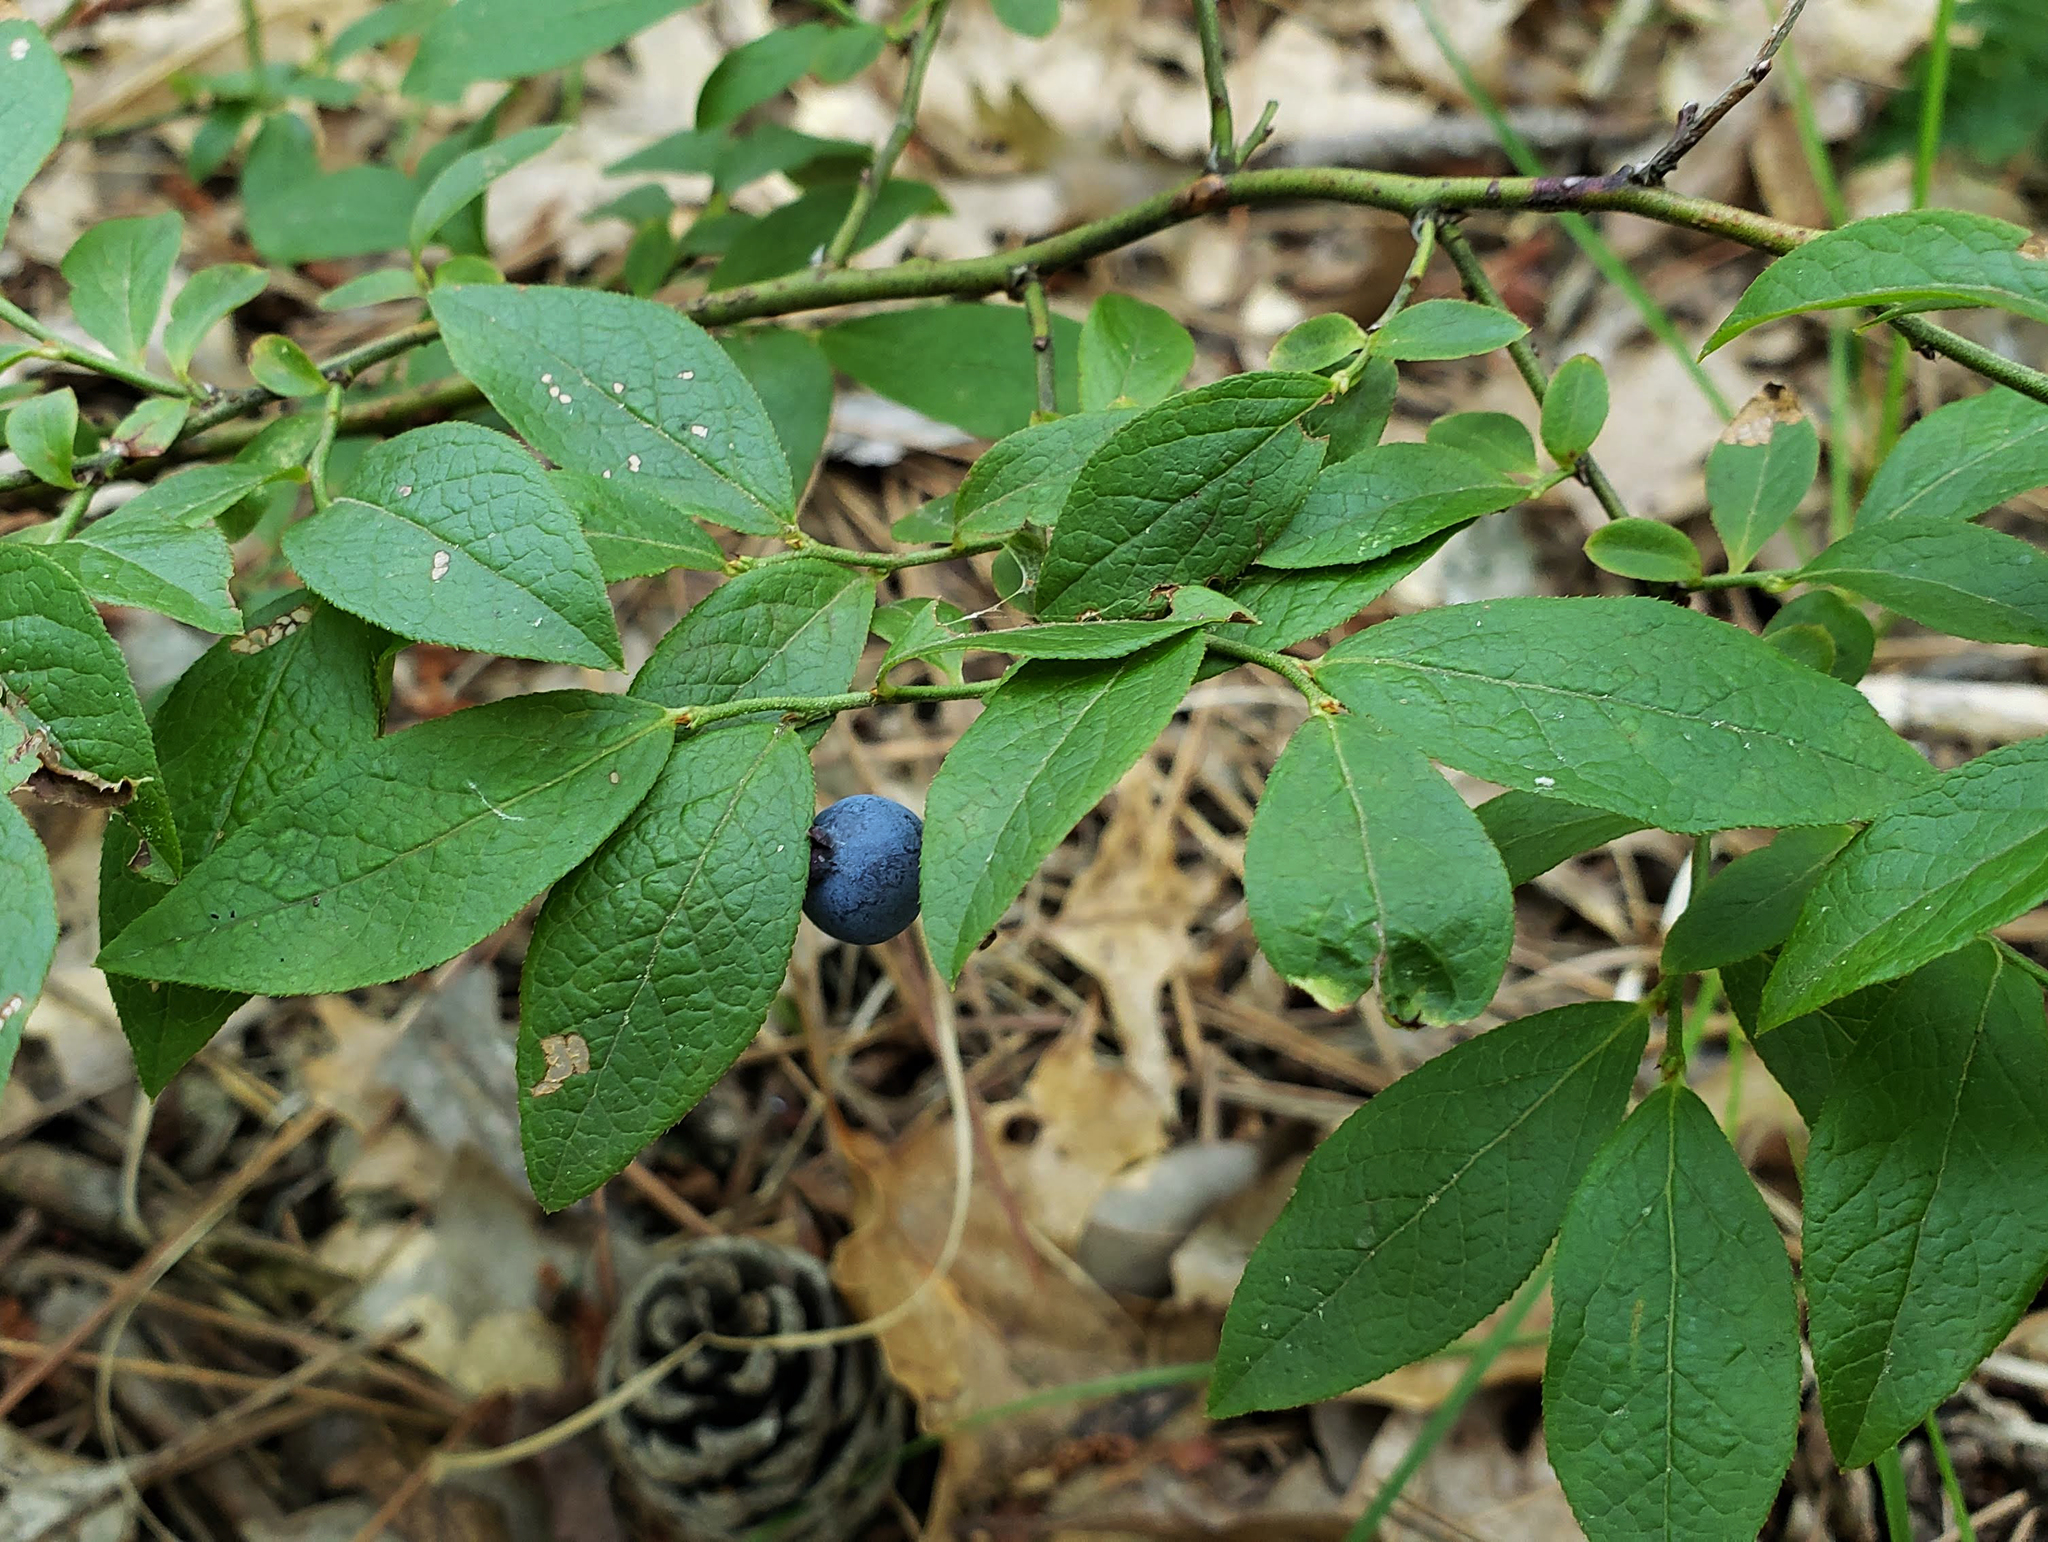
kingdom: Plantae
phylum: Tracheophyta
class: Magnoliopsida
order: Ericales
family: Ericaceae
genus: Vaccinium
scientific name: Vaccinium angustifolium
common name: Early lowbush blueberry
